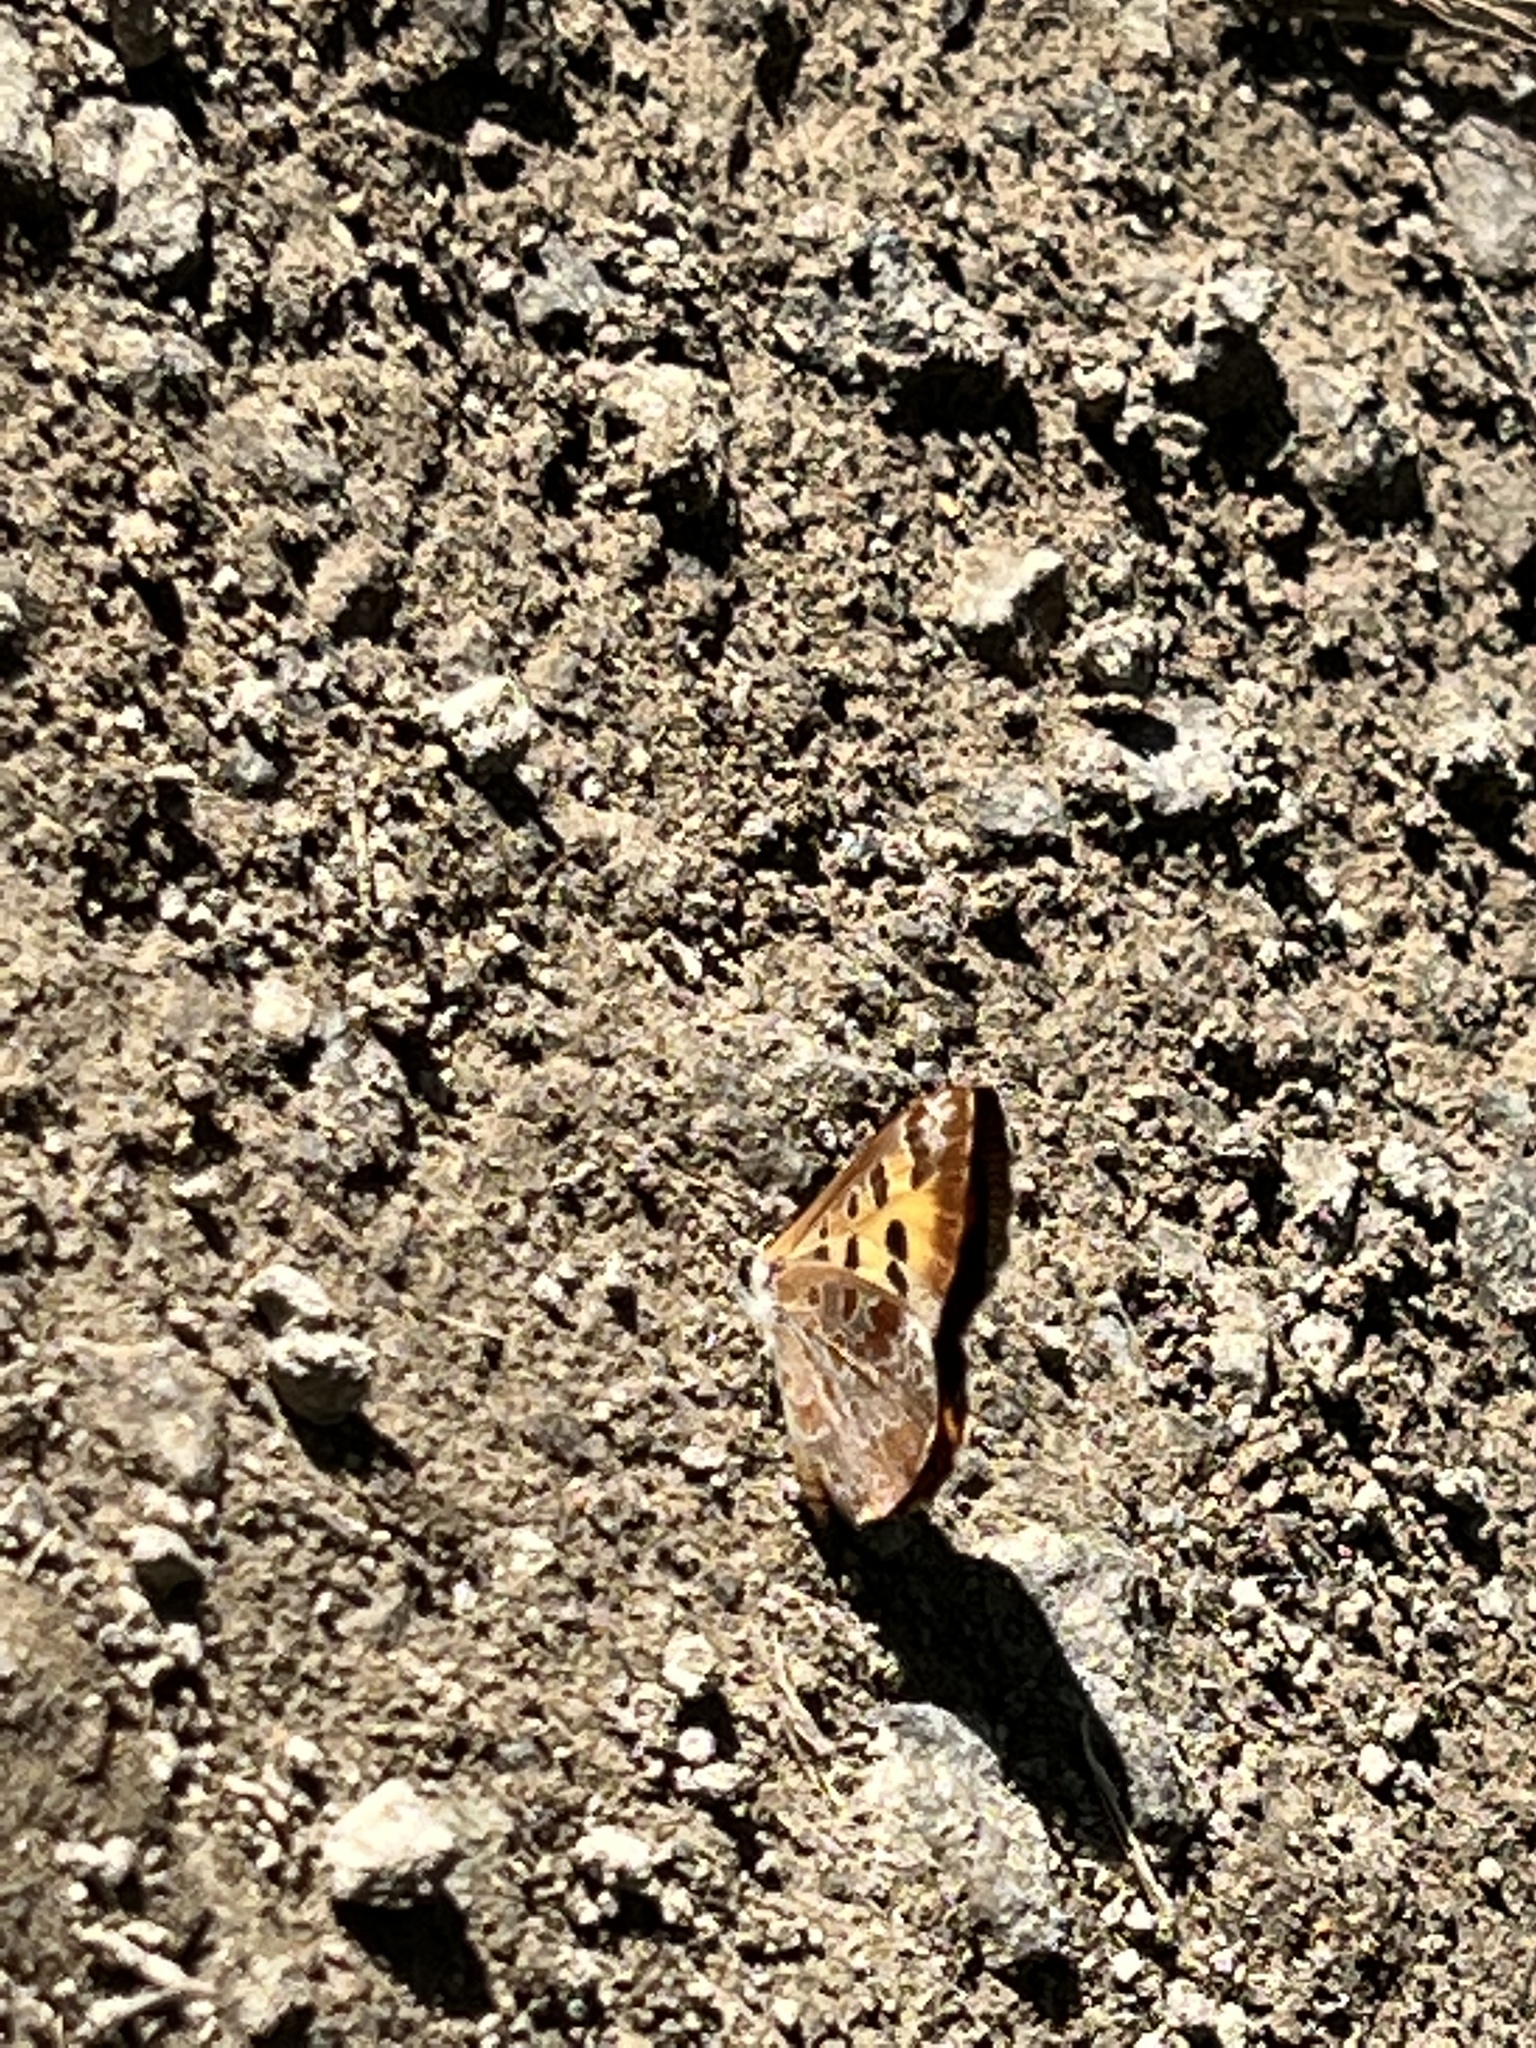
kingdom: Animalia
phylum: Arthropoda
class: Insecta
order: Lepidoptera
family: Lycaenidae
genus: Feniseca
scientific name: Feniseca tarquinius
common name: Harvester
